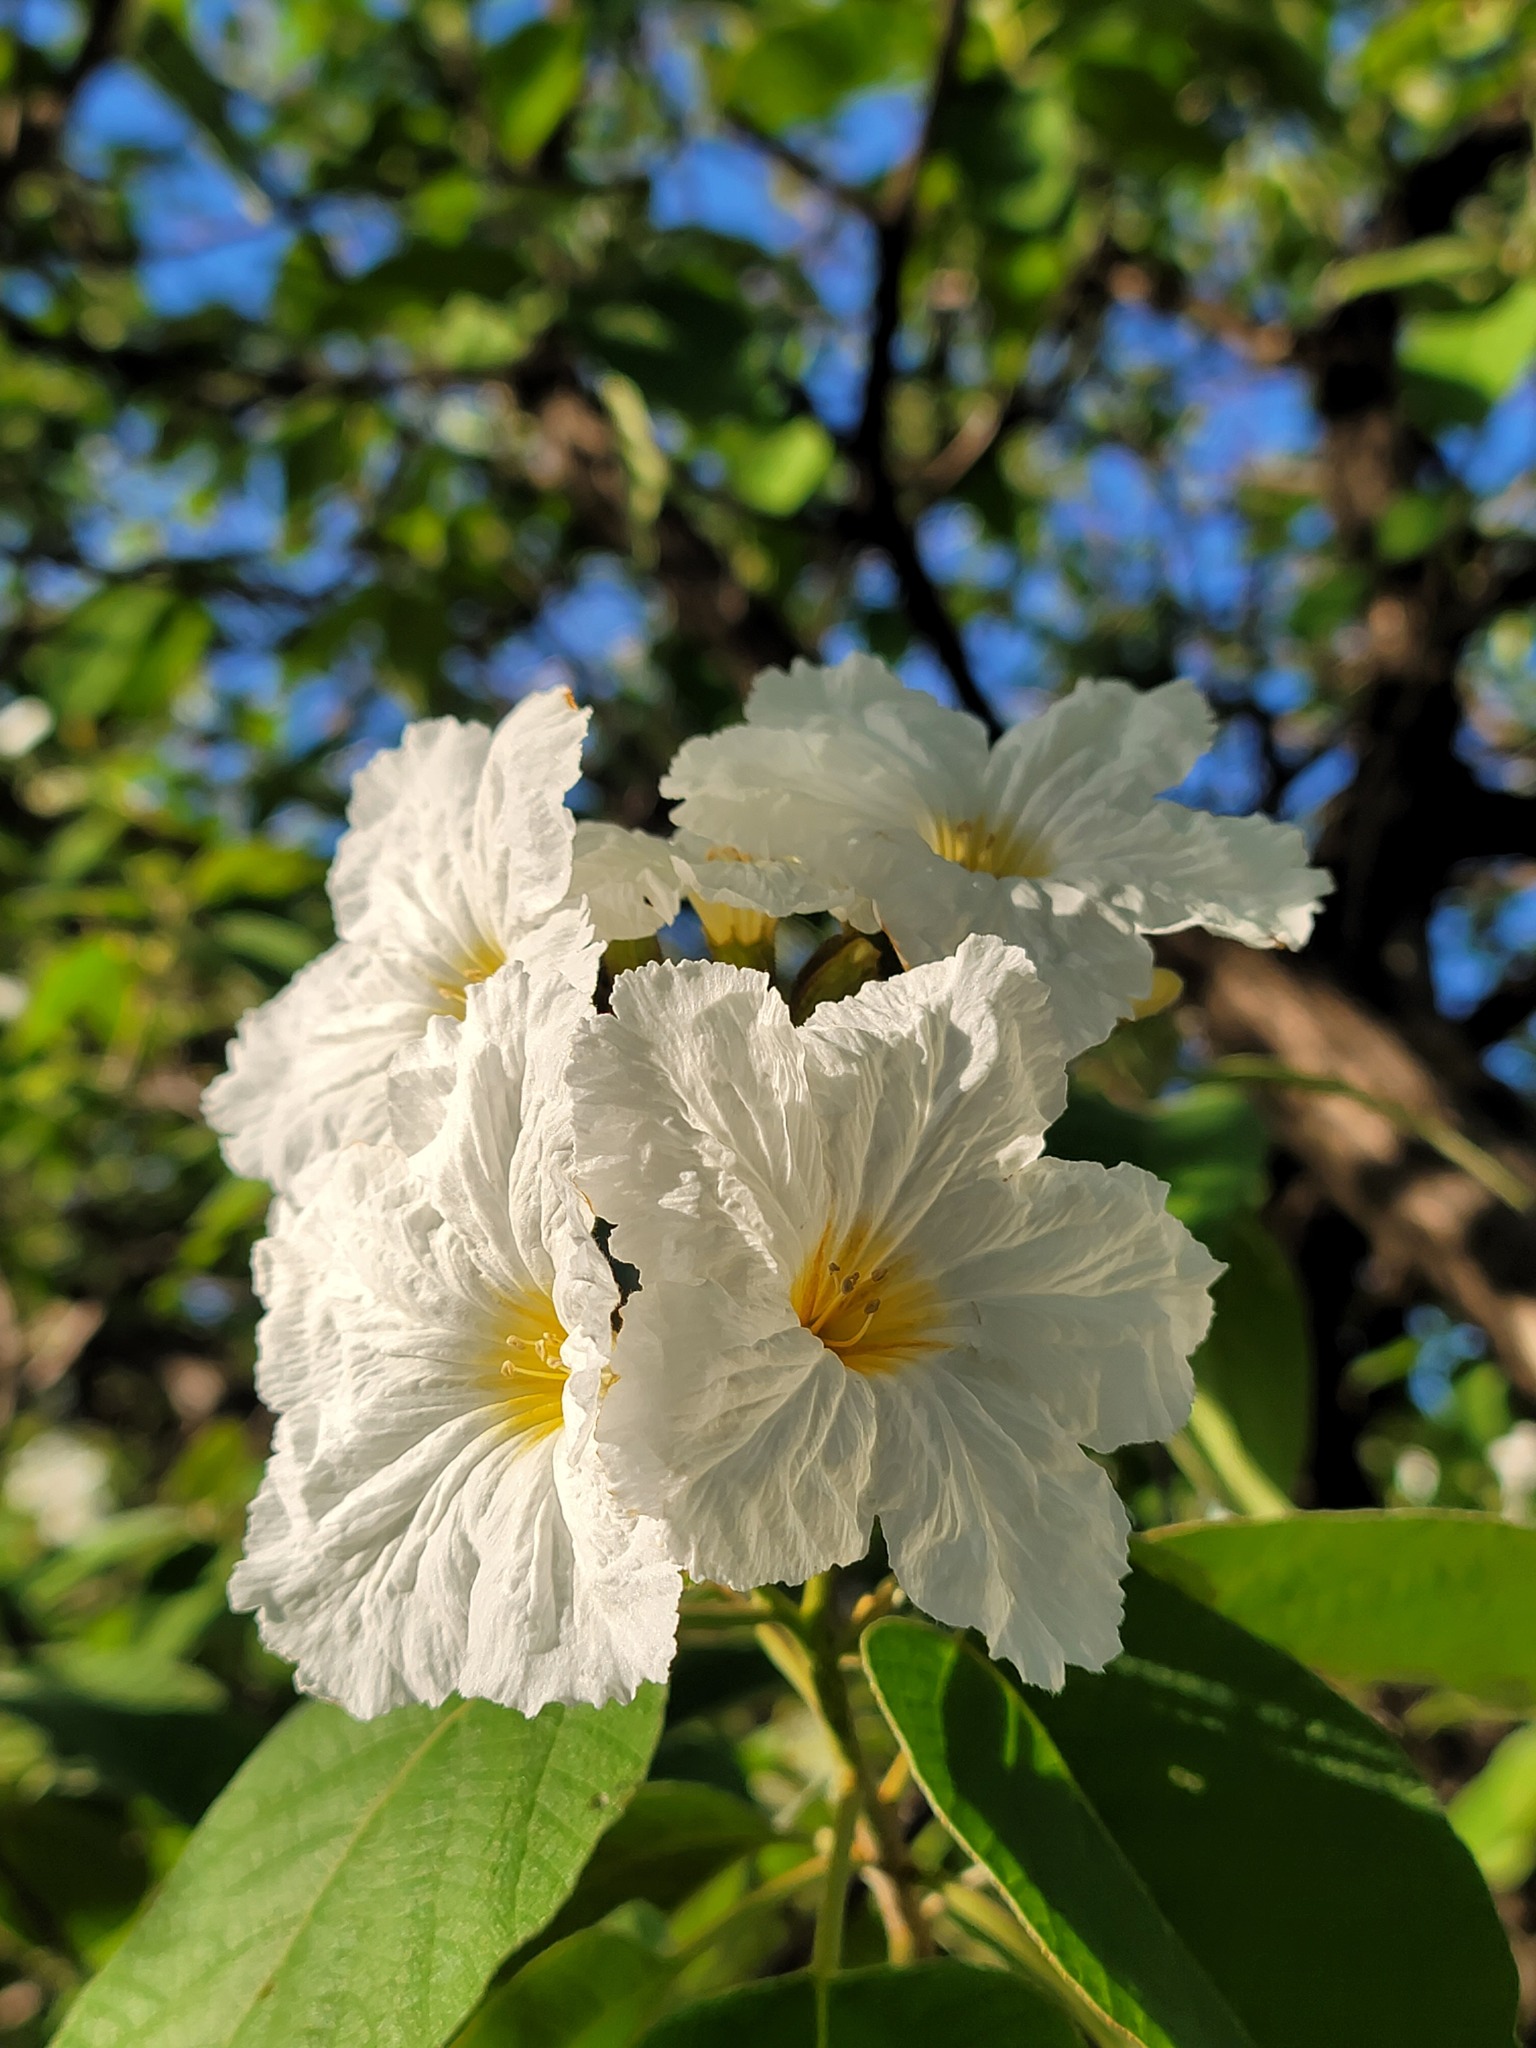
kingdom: Plantae
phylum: Tracheophyta
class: Magnoliopsida
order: Boraginales
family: Cordiaceae
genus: Cordia
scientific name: Cordia boissieri
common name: Mexican-olive
